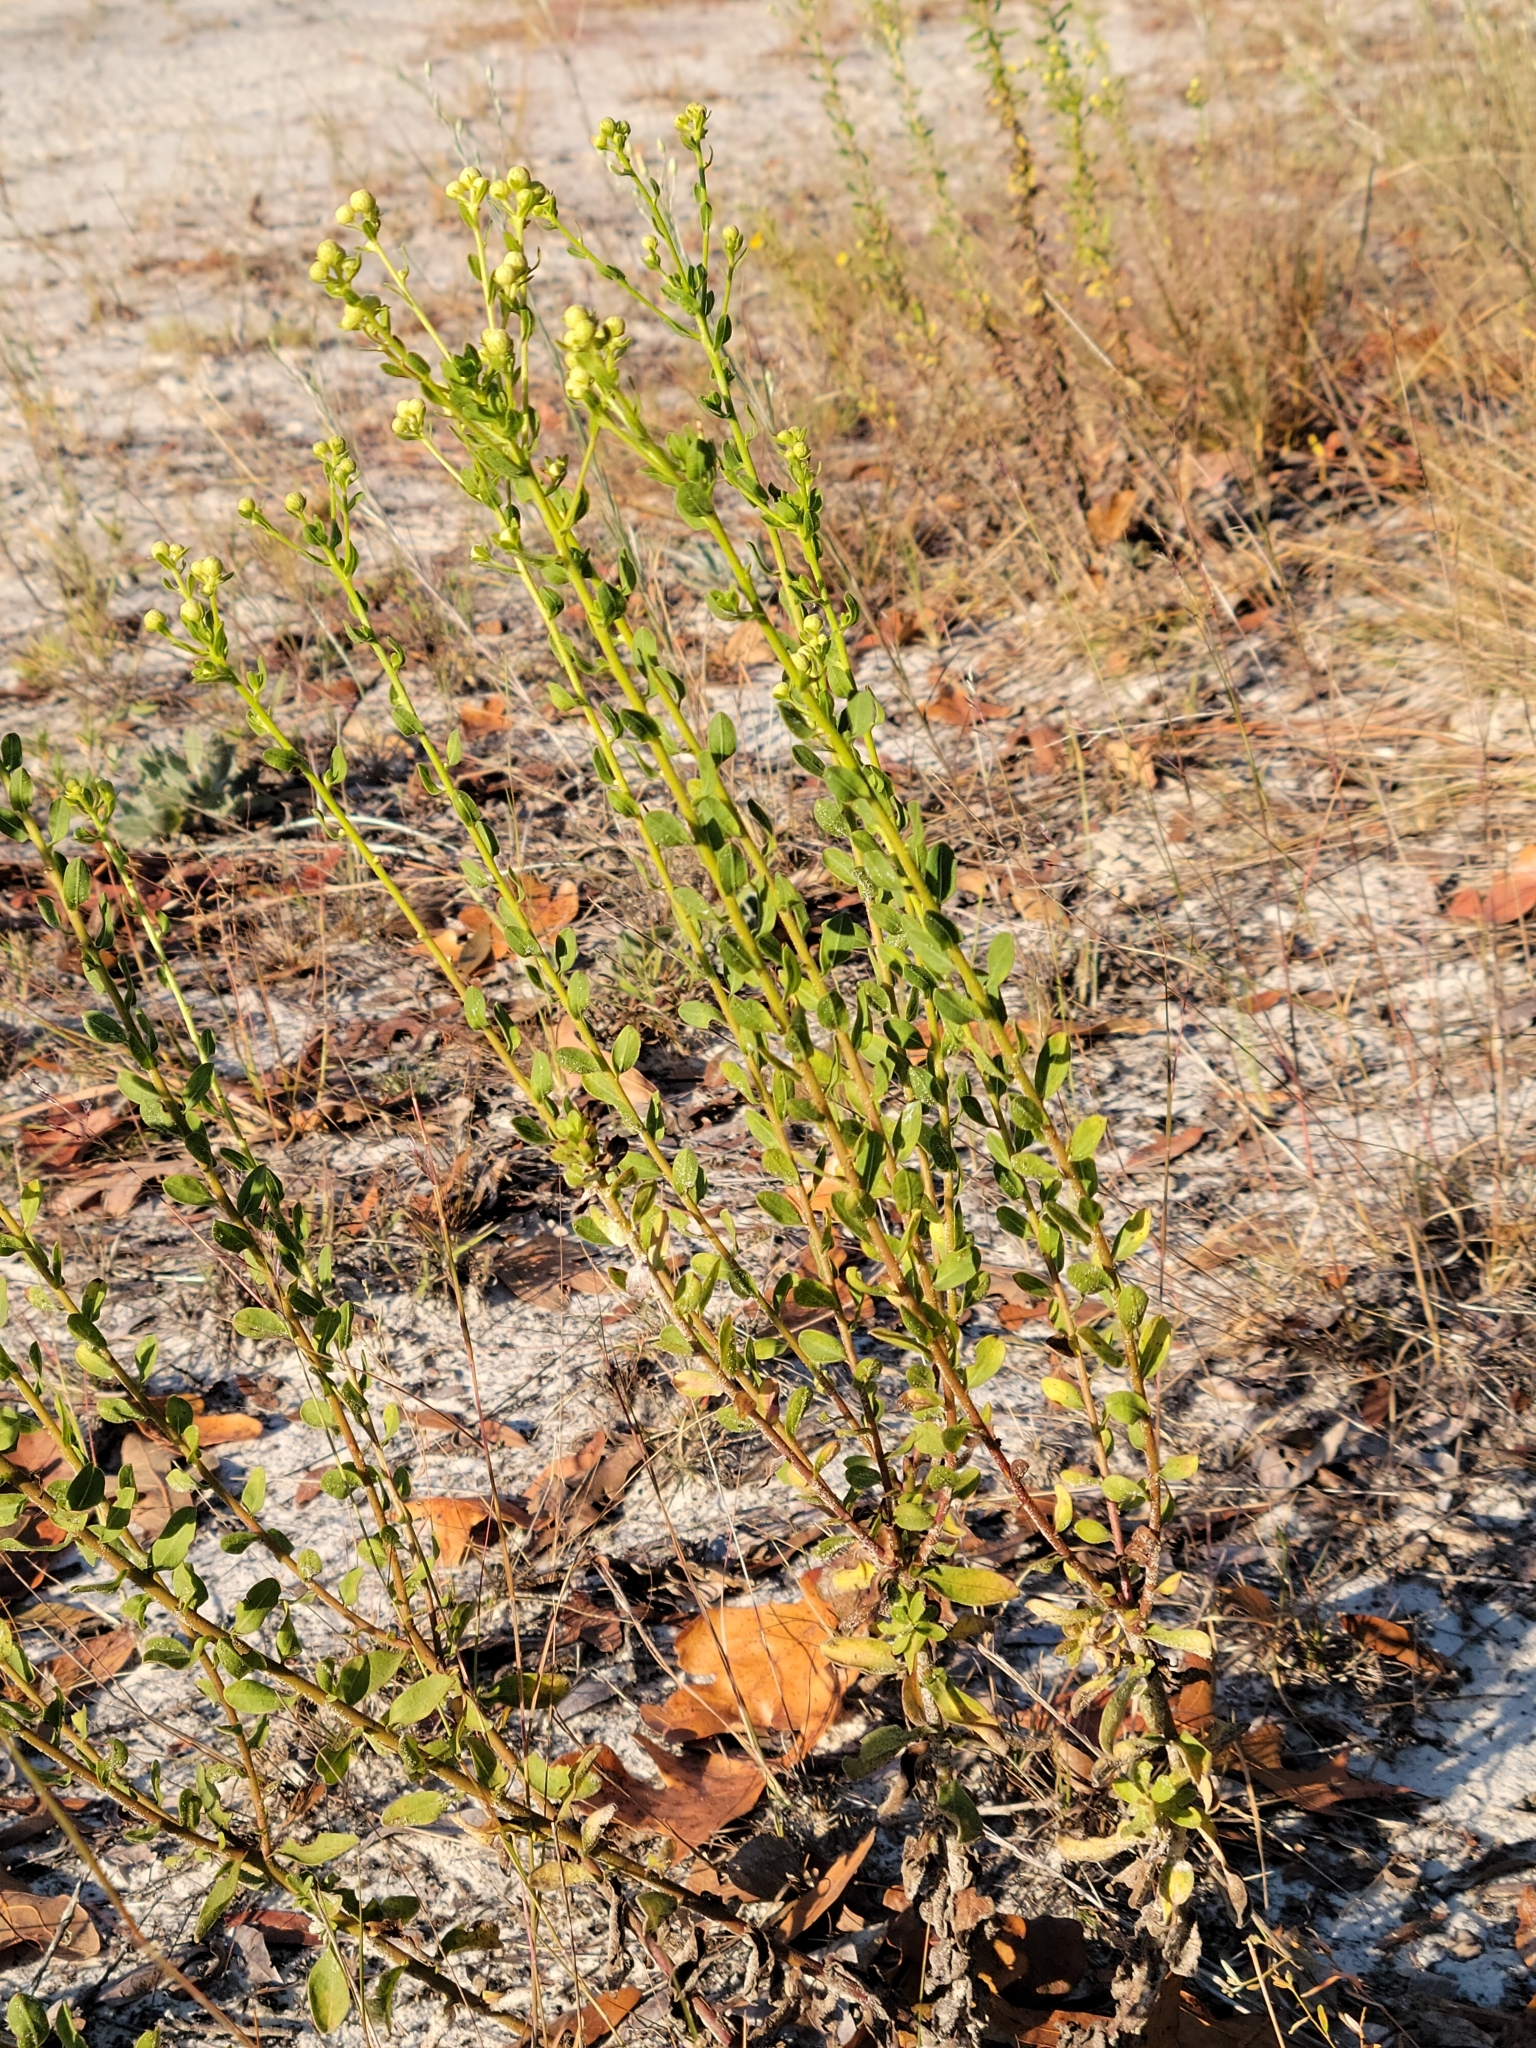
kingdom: Plantae
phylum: Tracheophyta
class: Magnoliopsida
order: Asterales
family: Asteraceae
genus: Chrysopsis
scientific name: Chrysopsis scabrella
